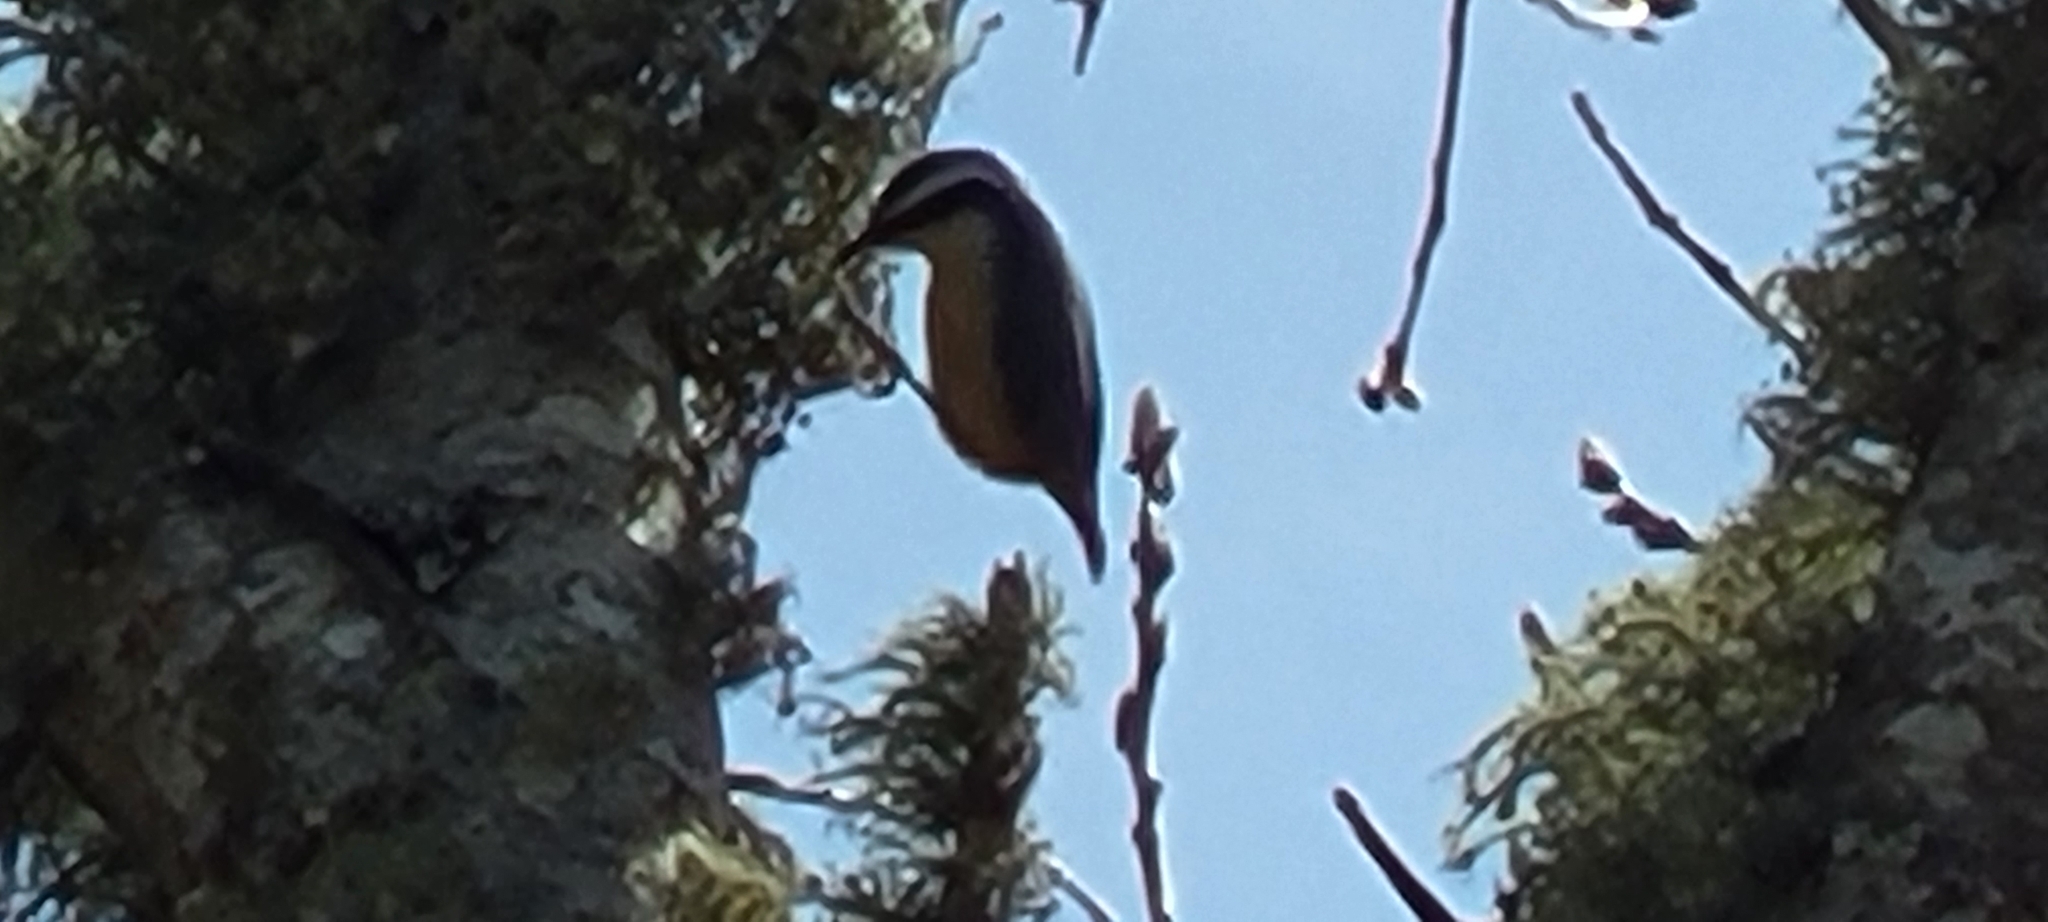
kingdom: Animalia
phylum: Chordata
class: Aves
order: Passeriformes
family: Sittidae
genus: Sitta
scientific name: Sitta canadensis
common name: Red-breasted nuthatch
